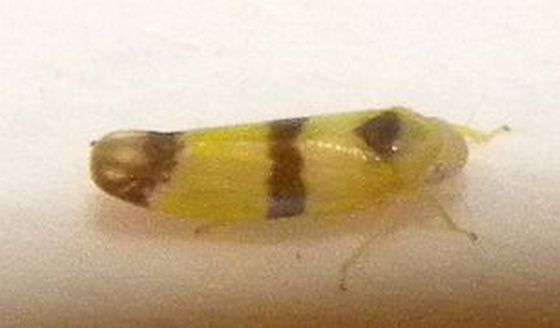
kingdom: Animalia
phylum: Arthropoda
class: Insecta
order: Hemiptera
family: Cicadellidae
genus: Empoa
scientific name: Empoa venusta
